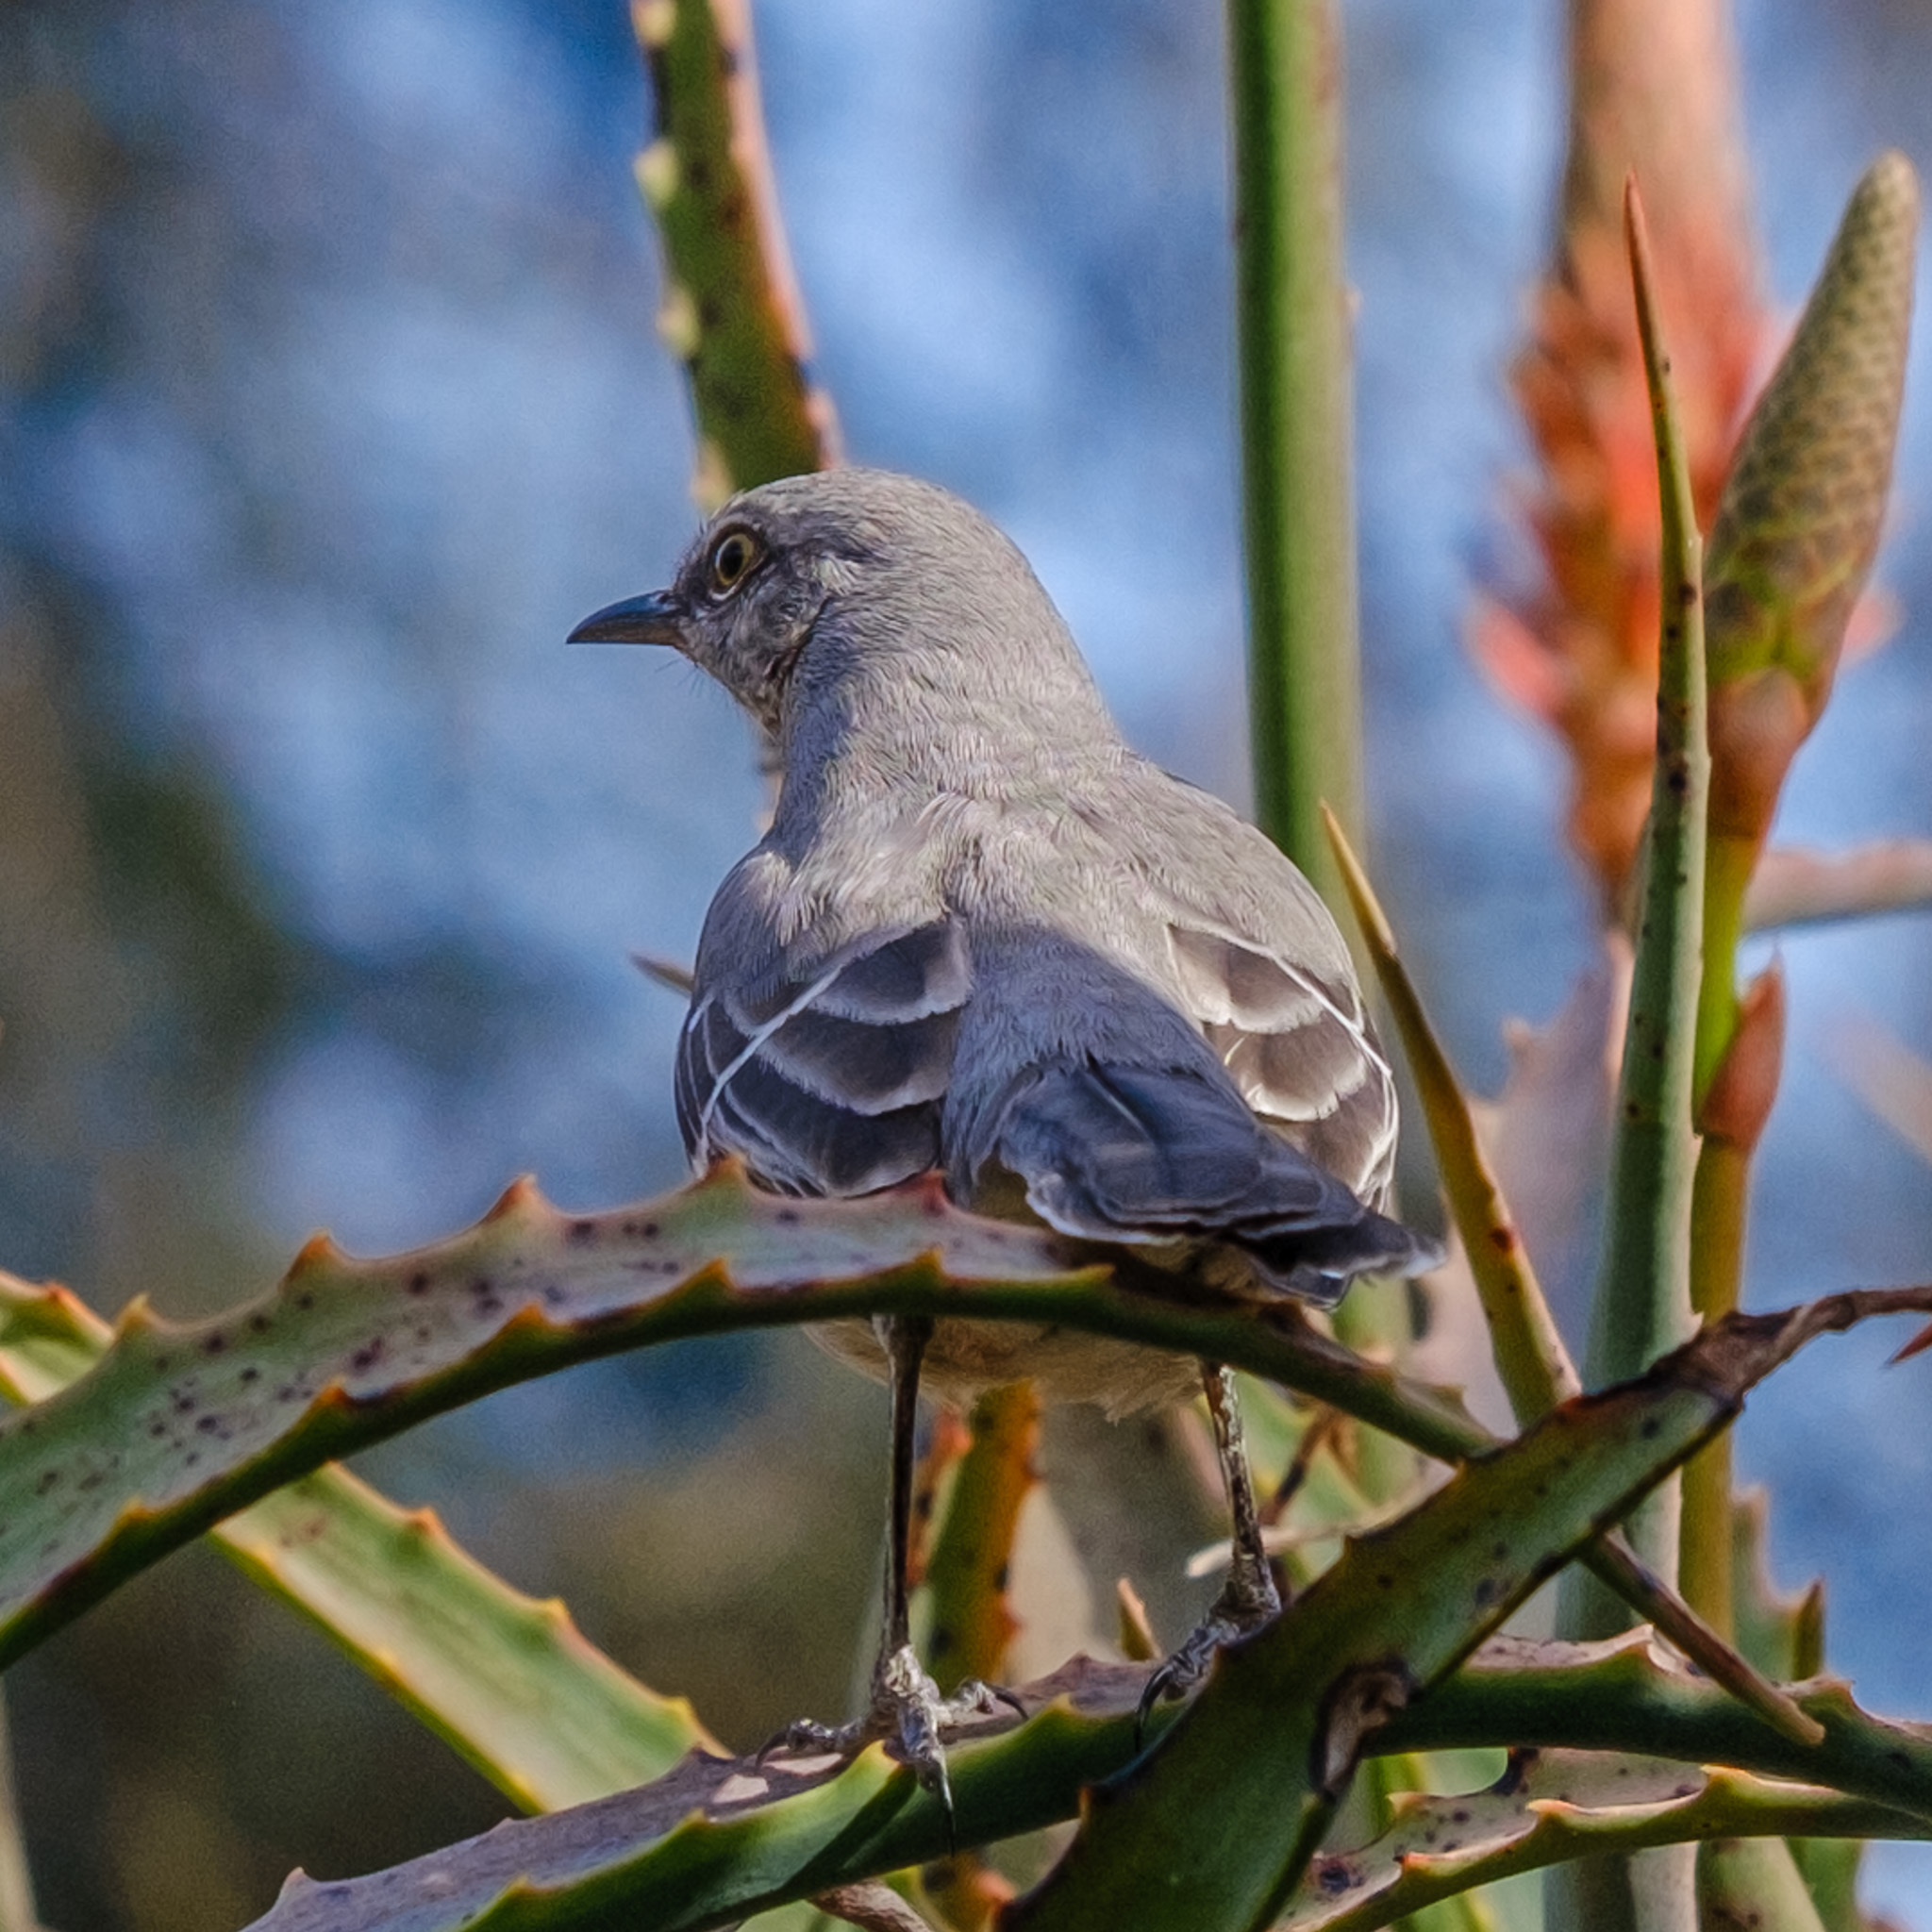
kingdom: Animalia
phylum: Chordata
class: Aves
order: Passeriformes
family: Mimidae
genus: Mimus
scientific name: Mimus polyglottos
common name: Northern mockingbird
